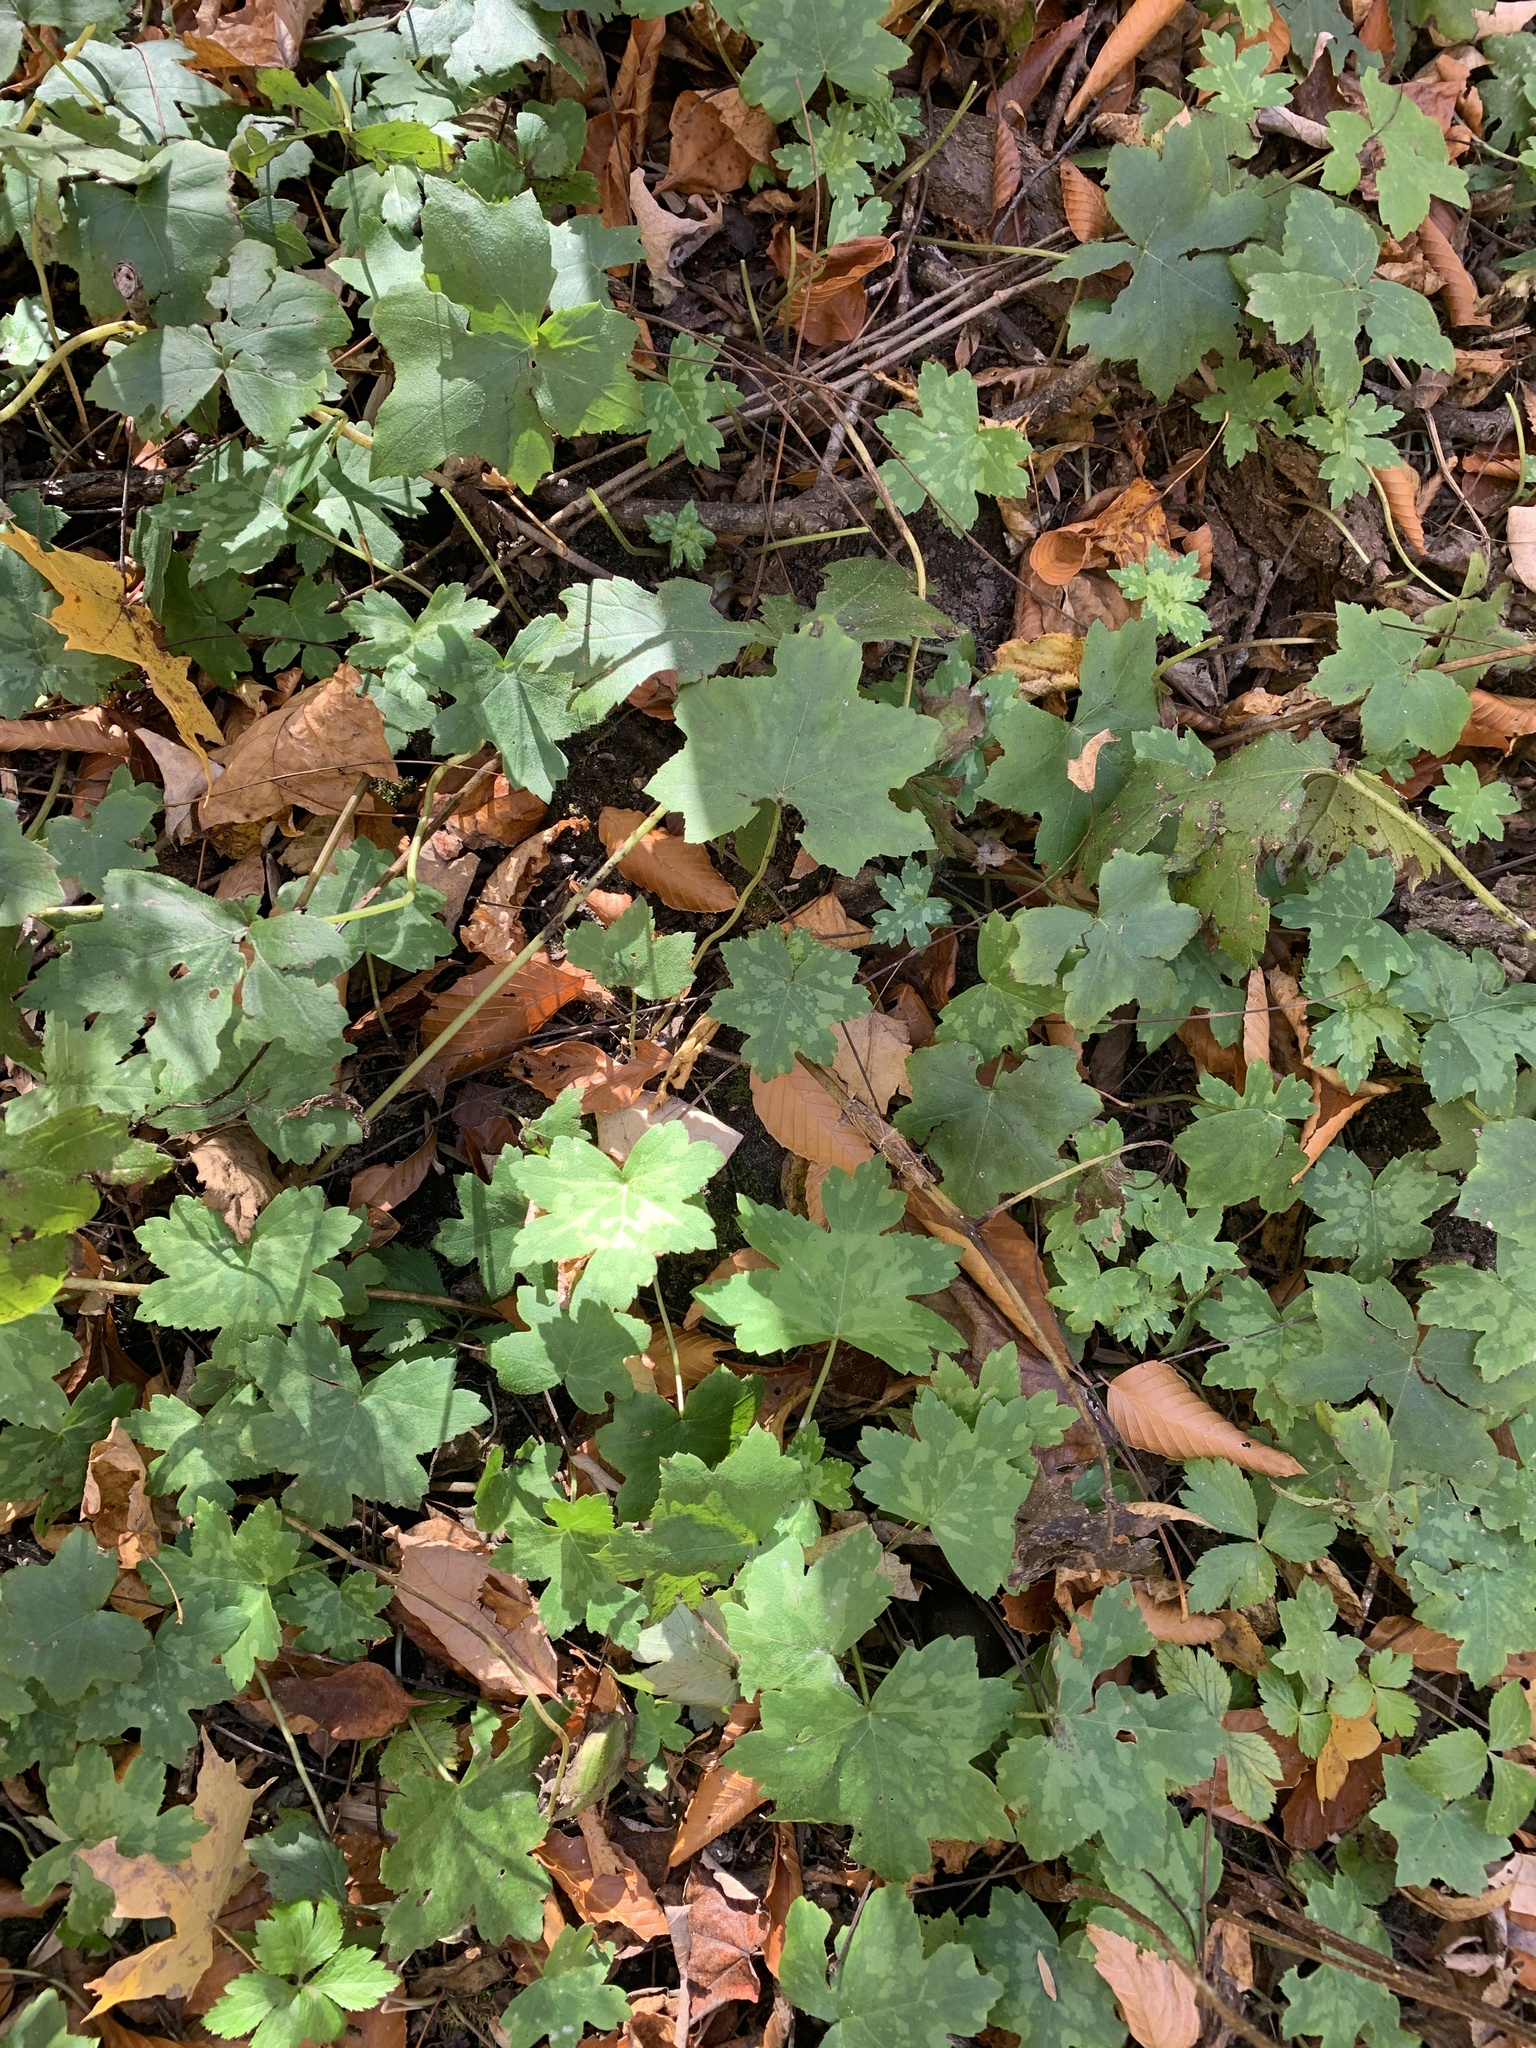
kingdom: Plantae
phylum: Tracheophyta
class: Magnoliopsida
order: Boraginales
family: Hydrophyllaceae
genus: Hydrophyllum
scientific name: Hydrophyllum canadense
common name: Canada waterleaf
